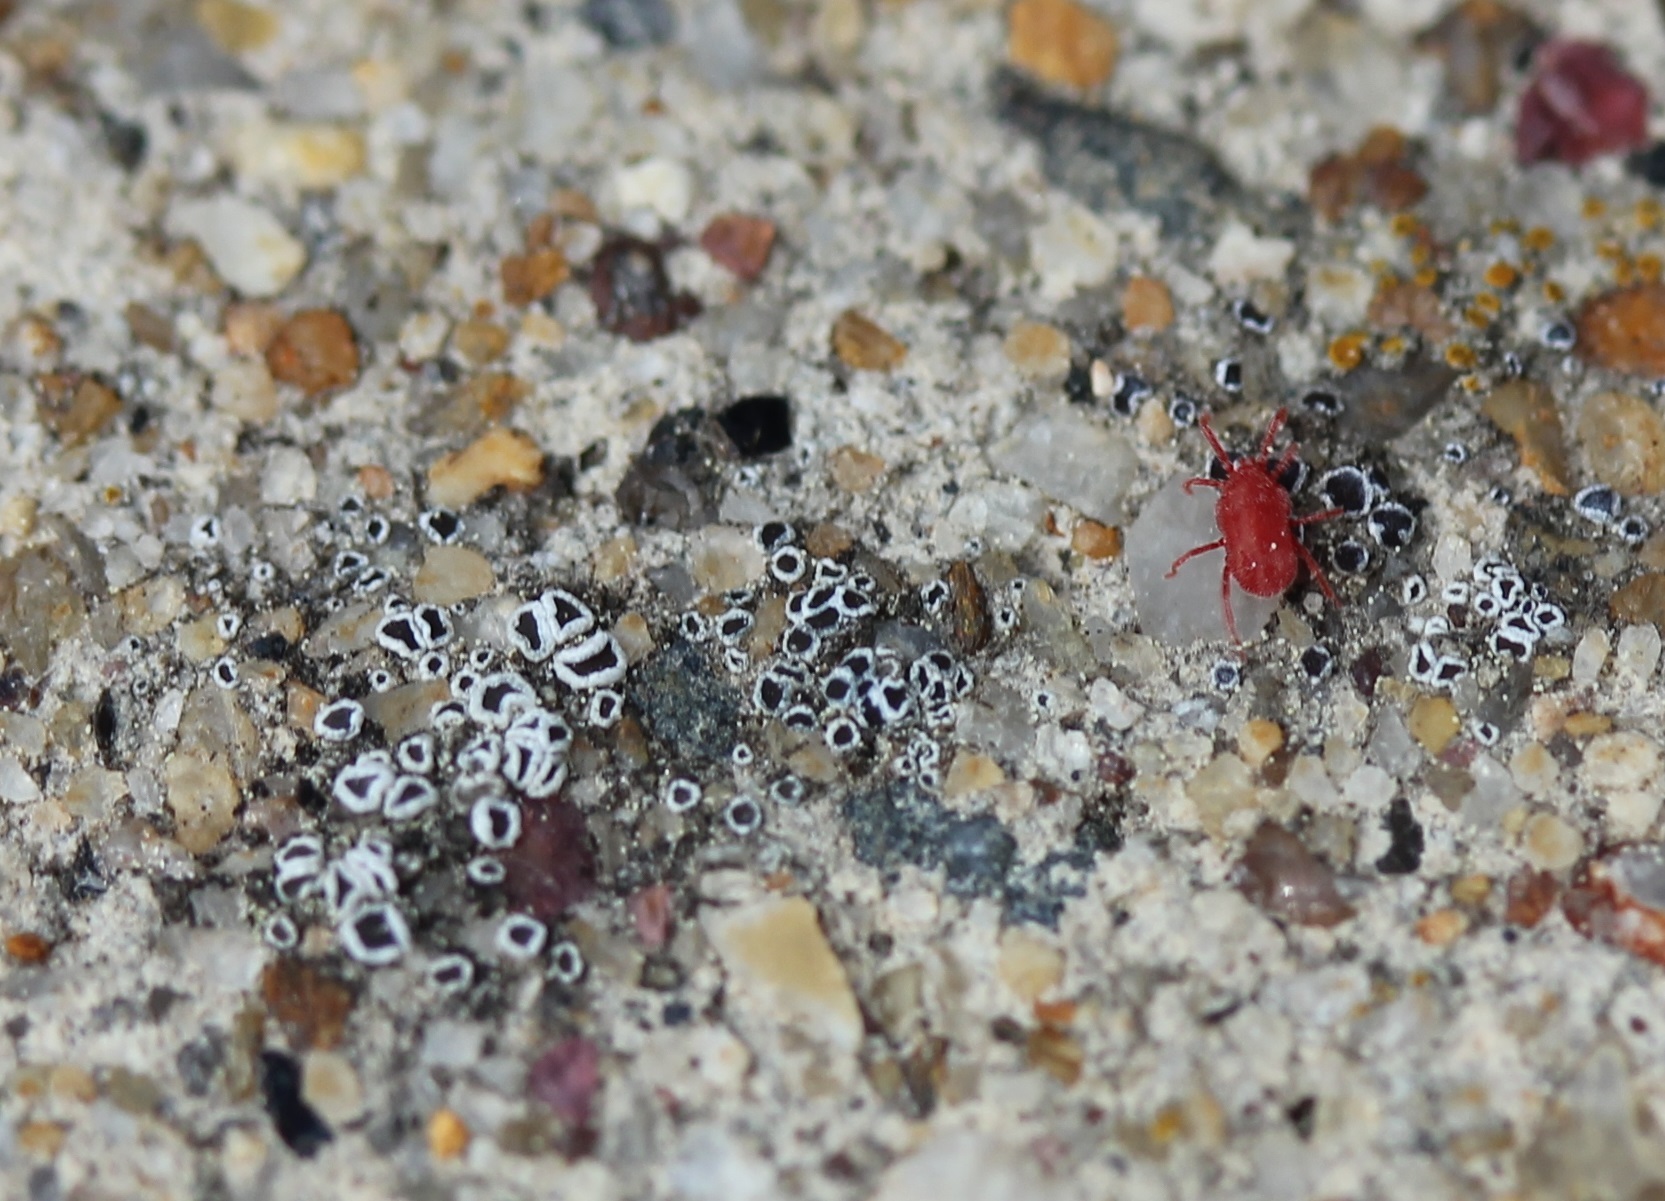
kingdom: Fungi
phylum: Ascomycota
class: Lecanoromycetes
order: Lecanorales
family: Lecanoraceae
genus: Polyozosia
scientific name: Polyozosia dispersa
